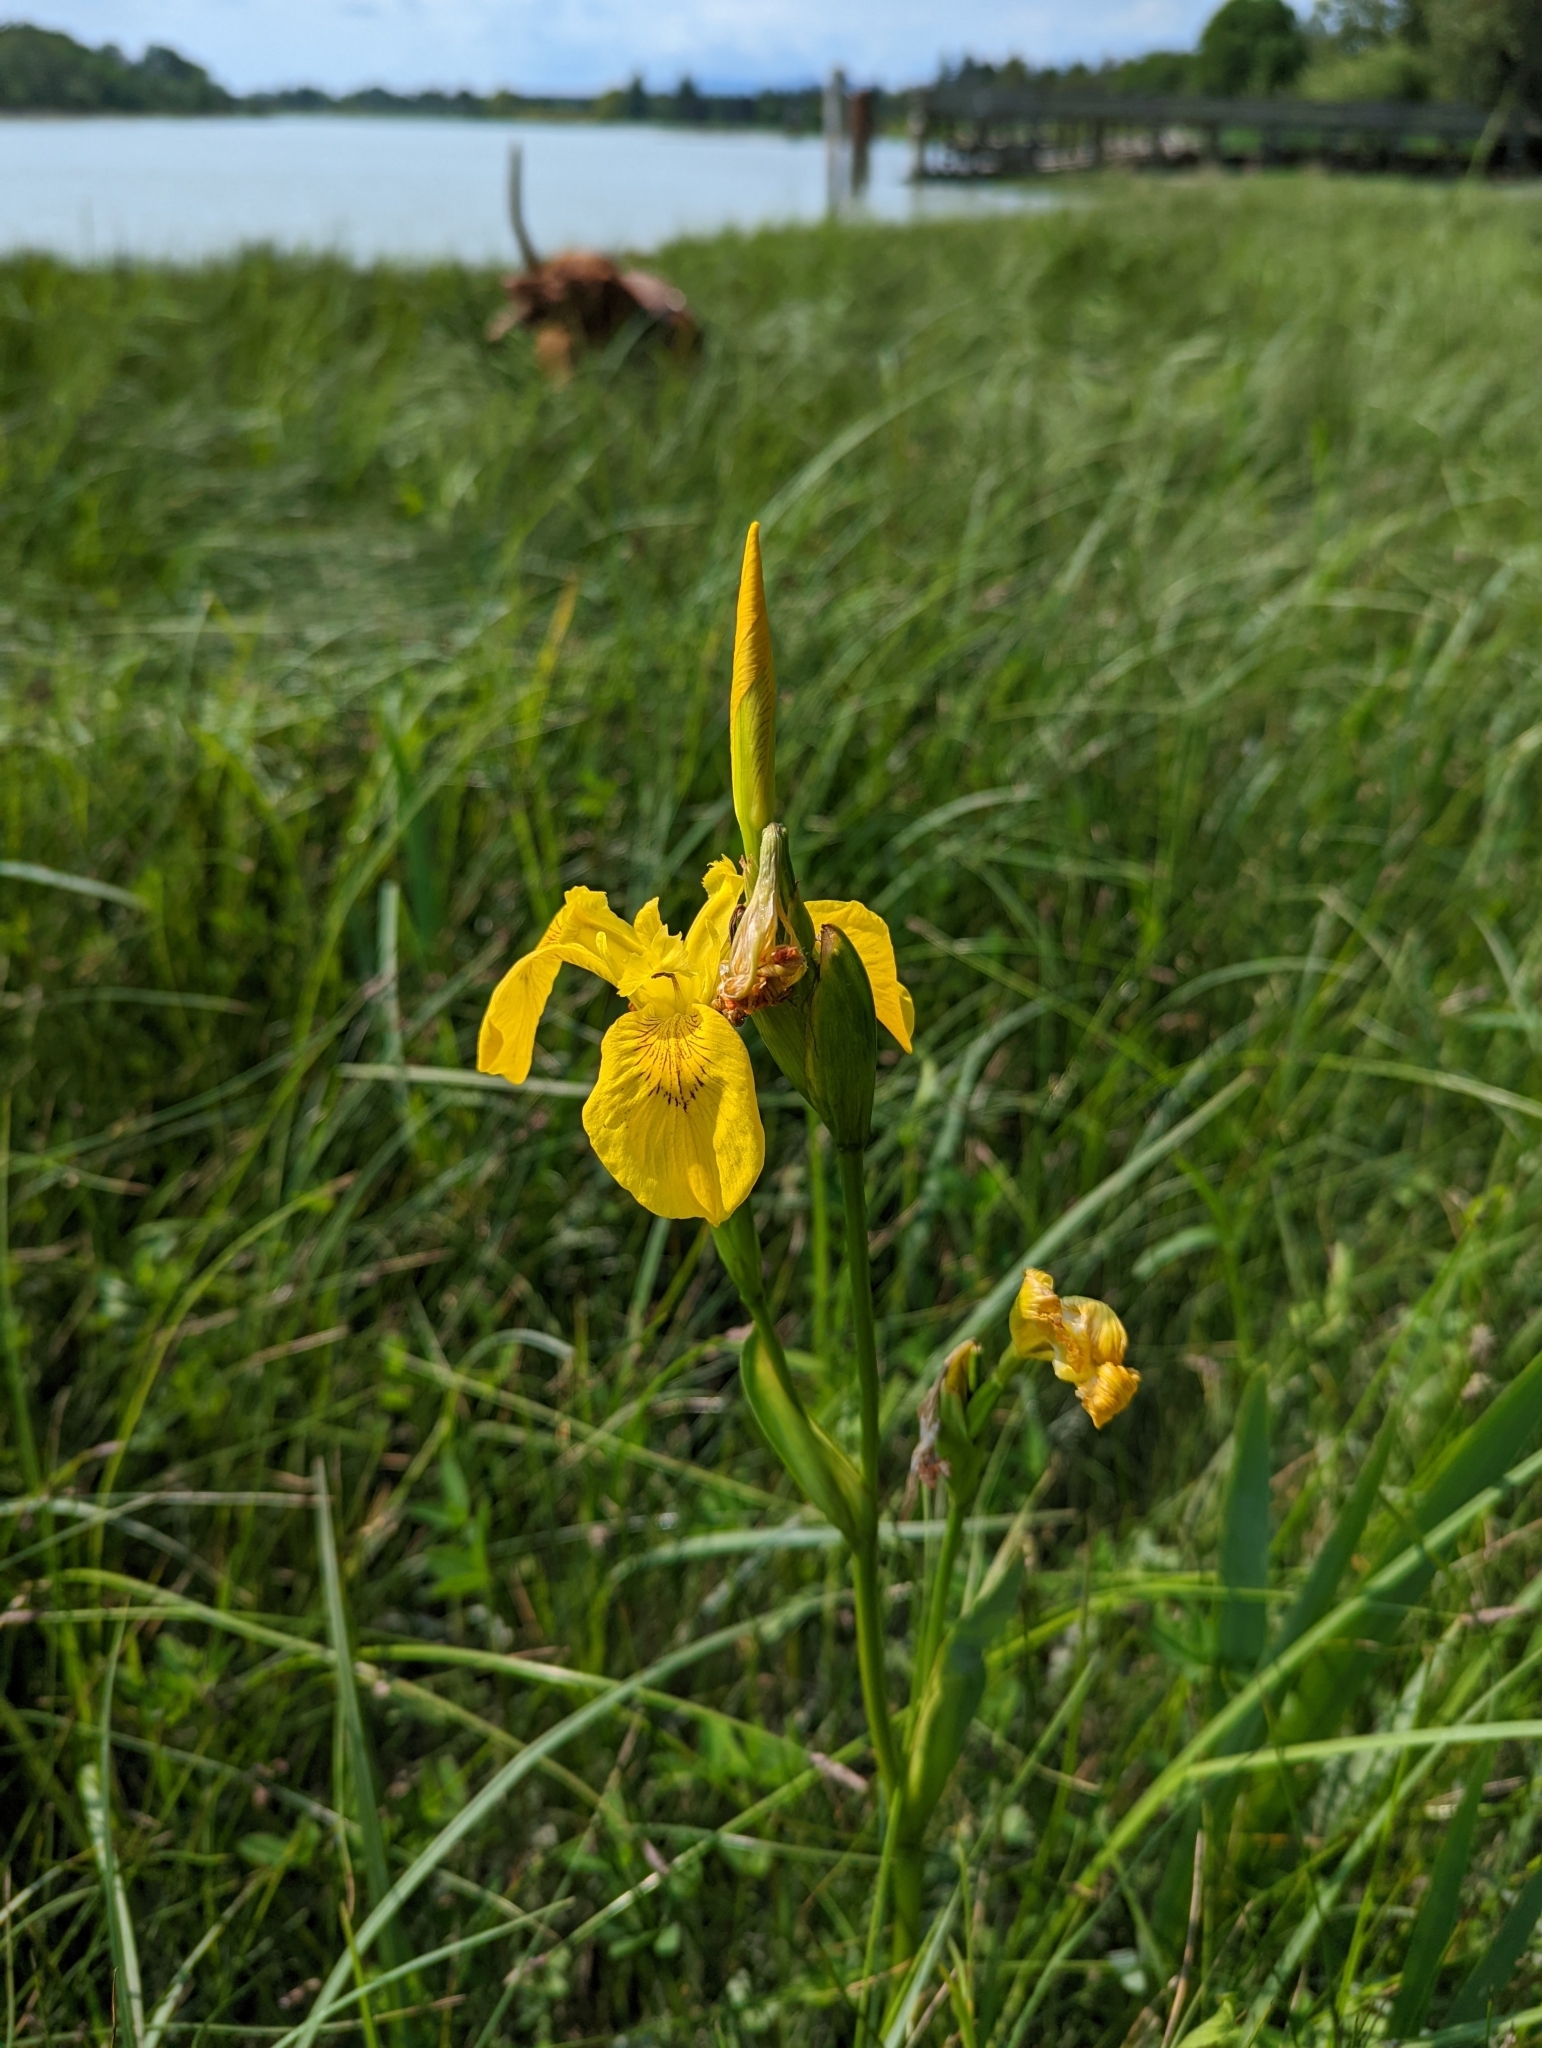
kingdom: Plantae
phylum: Tracheophyta
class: Liliopsida
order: Asparagales
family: Iridaceae
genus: Iris
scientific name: Iris pseudacorus
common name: Yellow flag
